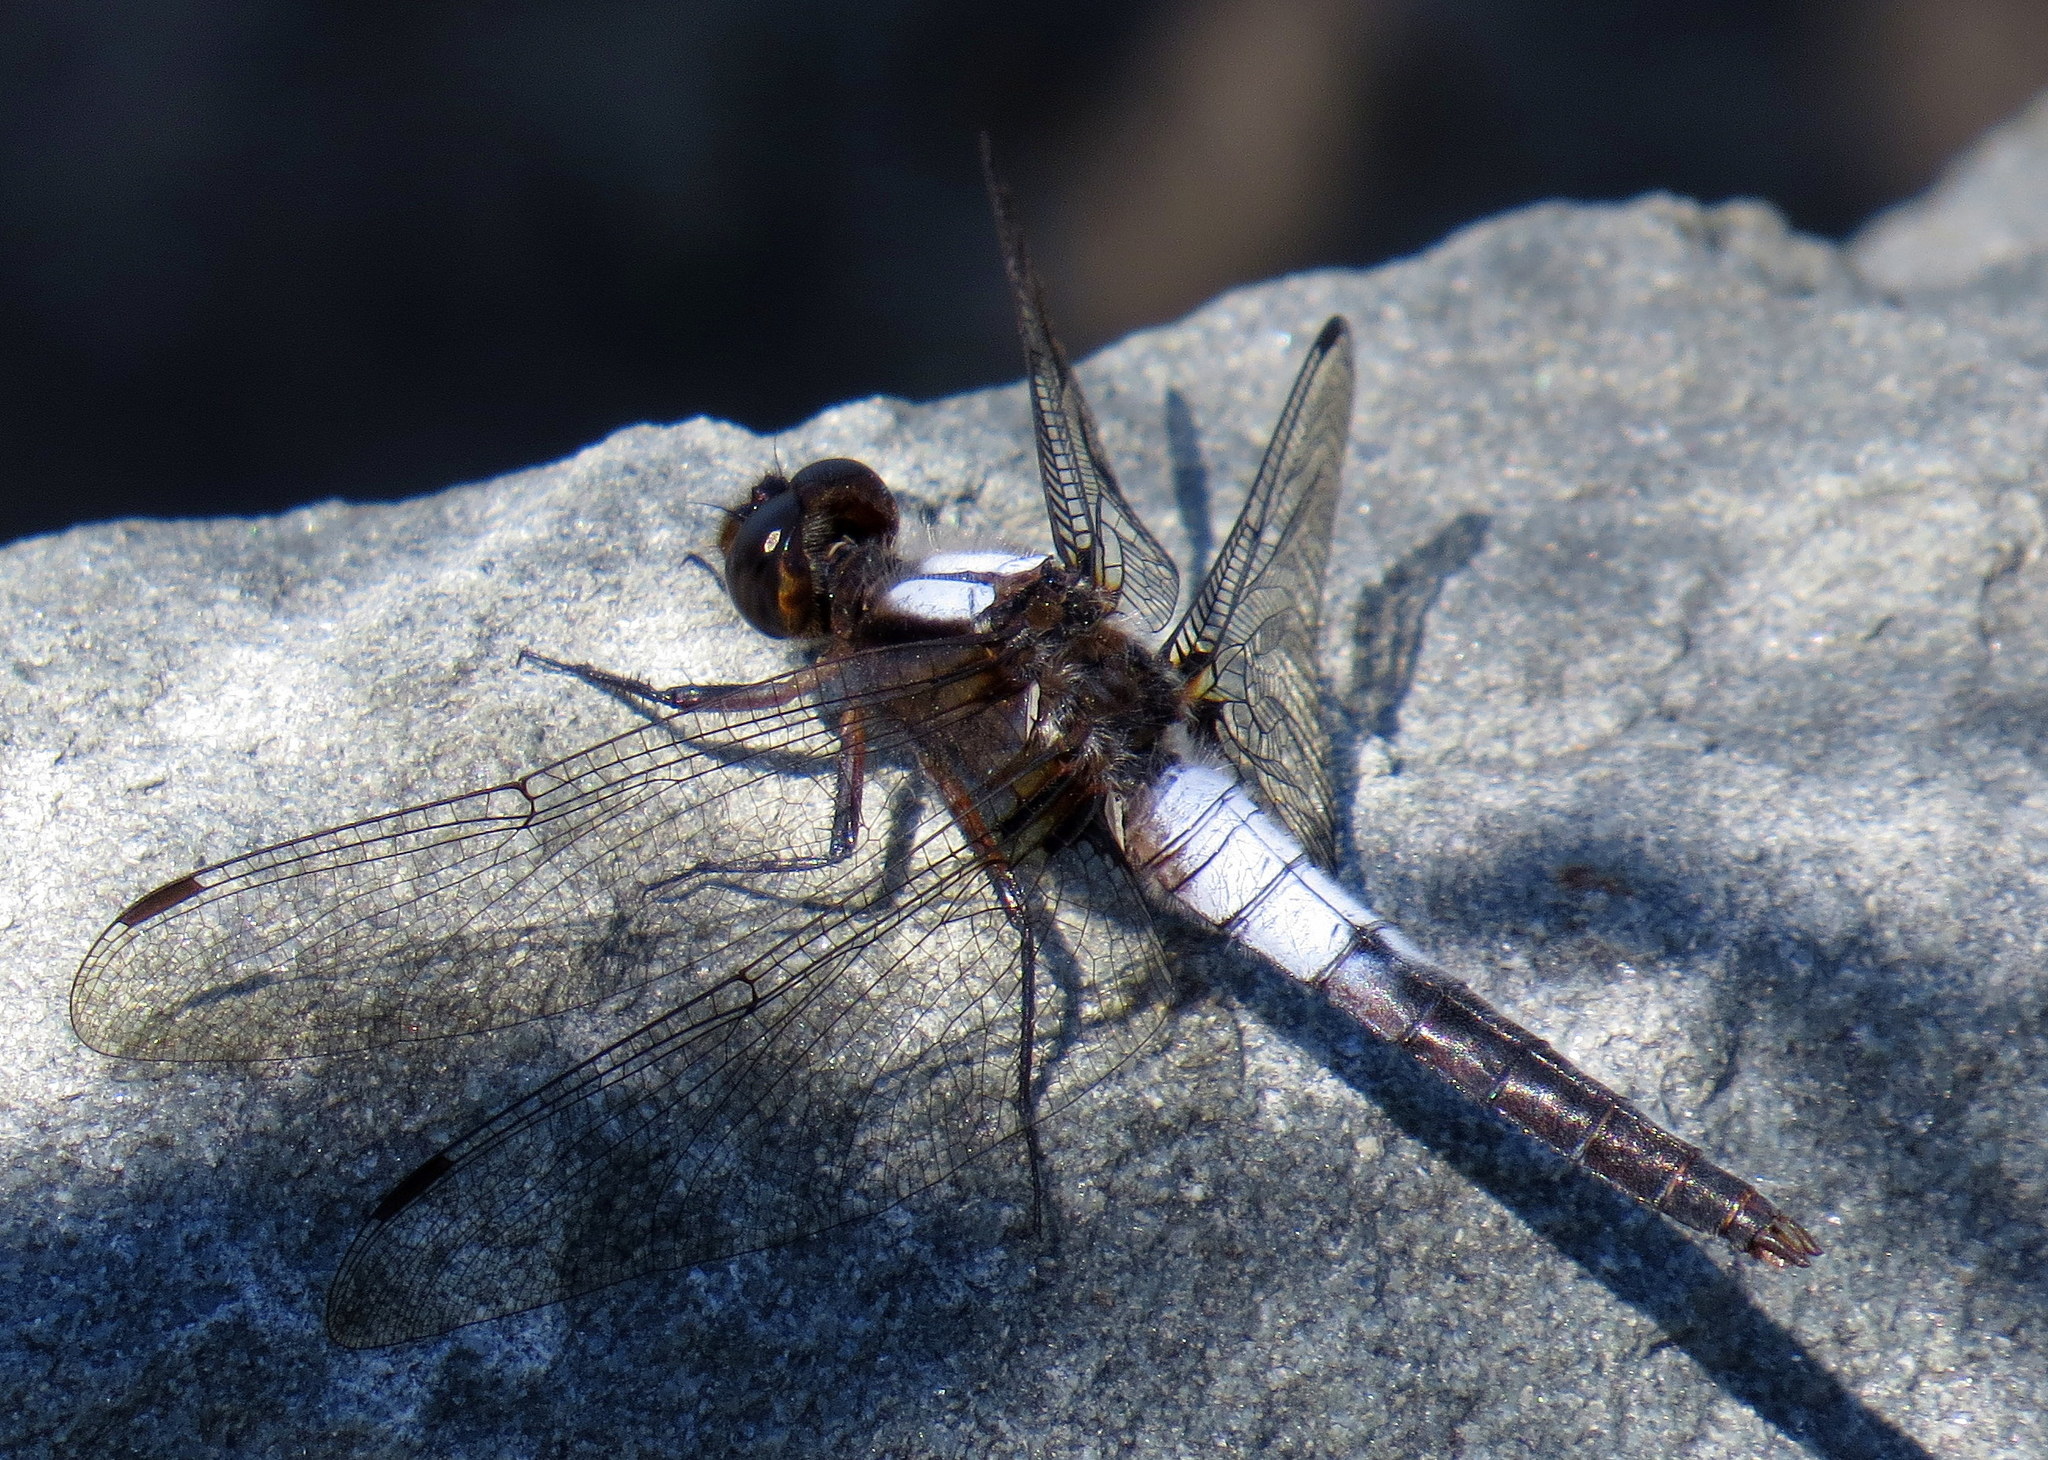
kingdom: Animalia
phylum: Arthropoda
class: Insecta
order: Odonata
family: Libellulidae
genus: Ladona
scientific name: Ladona julia
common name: Chalk-fronted corporal
